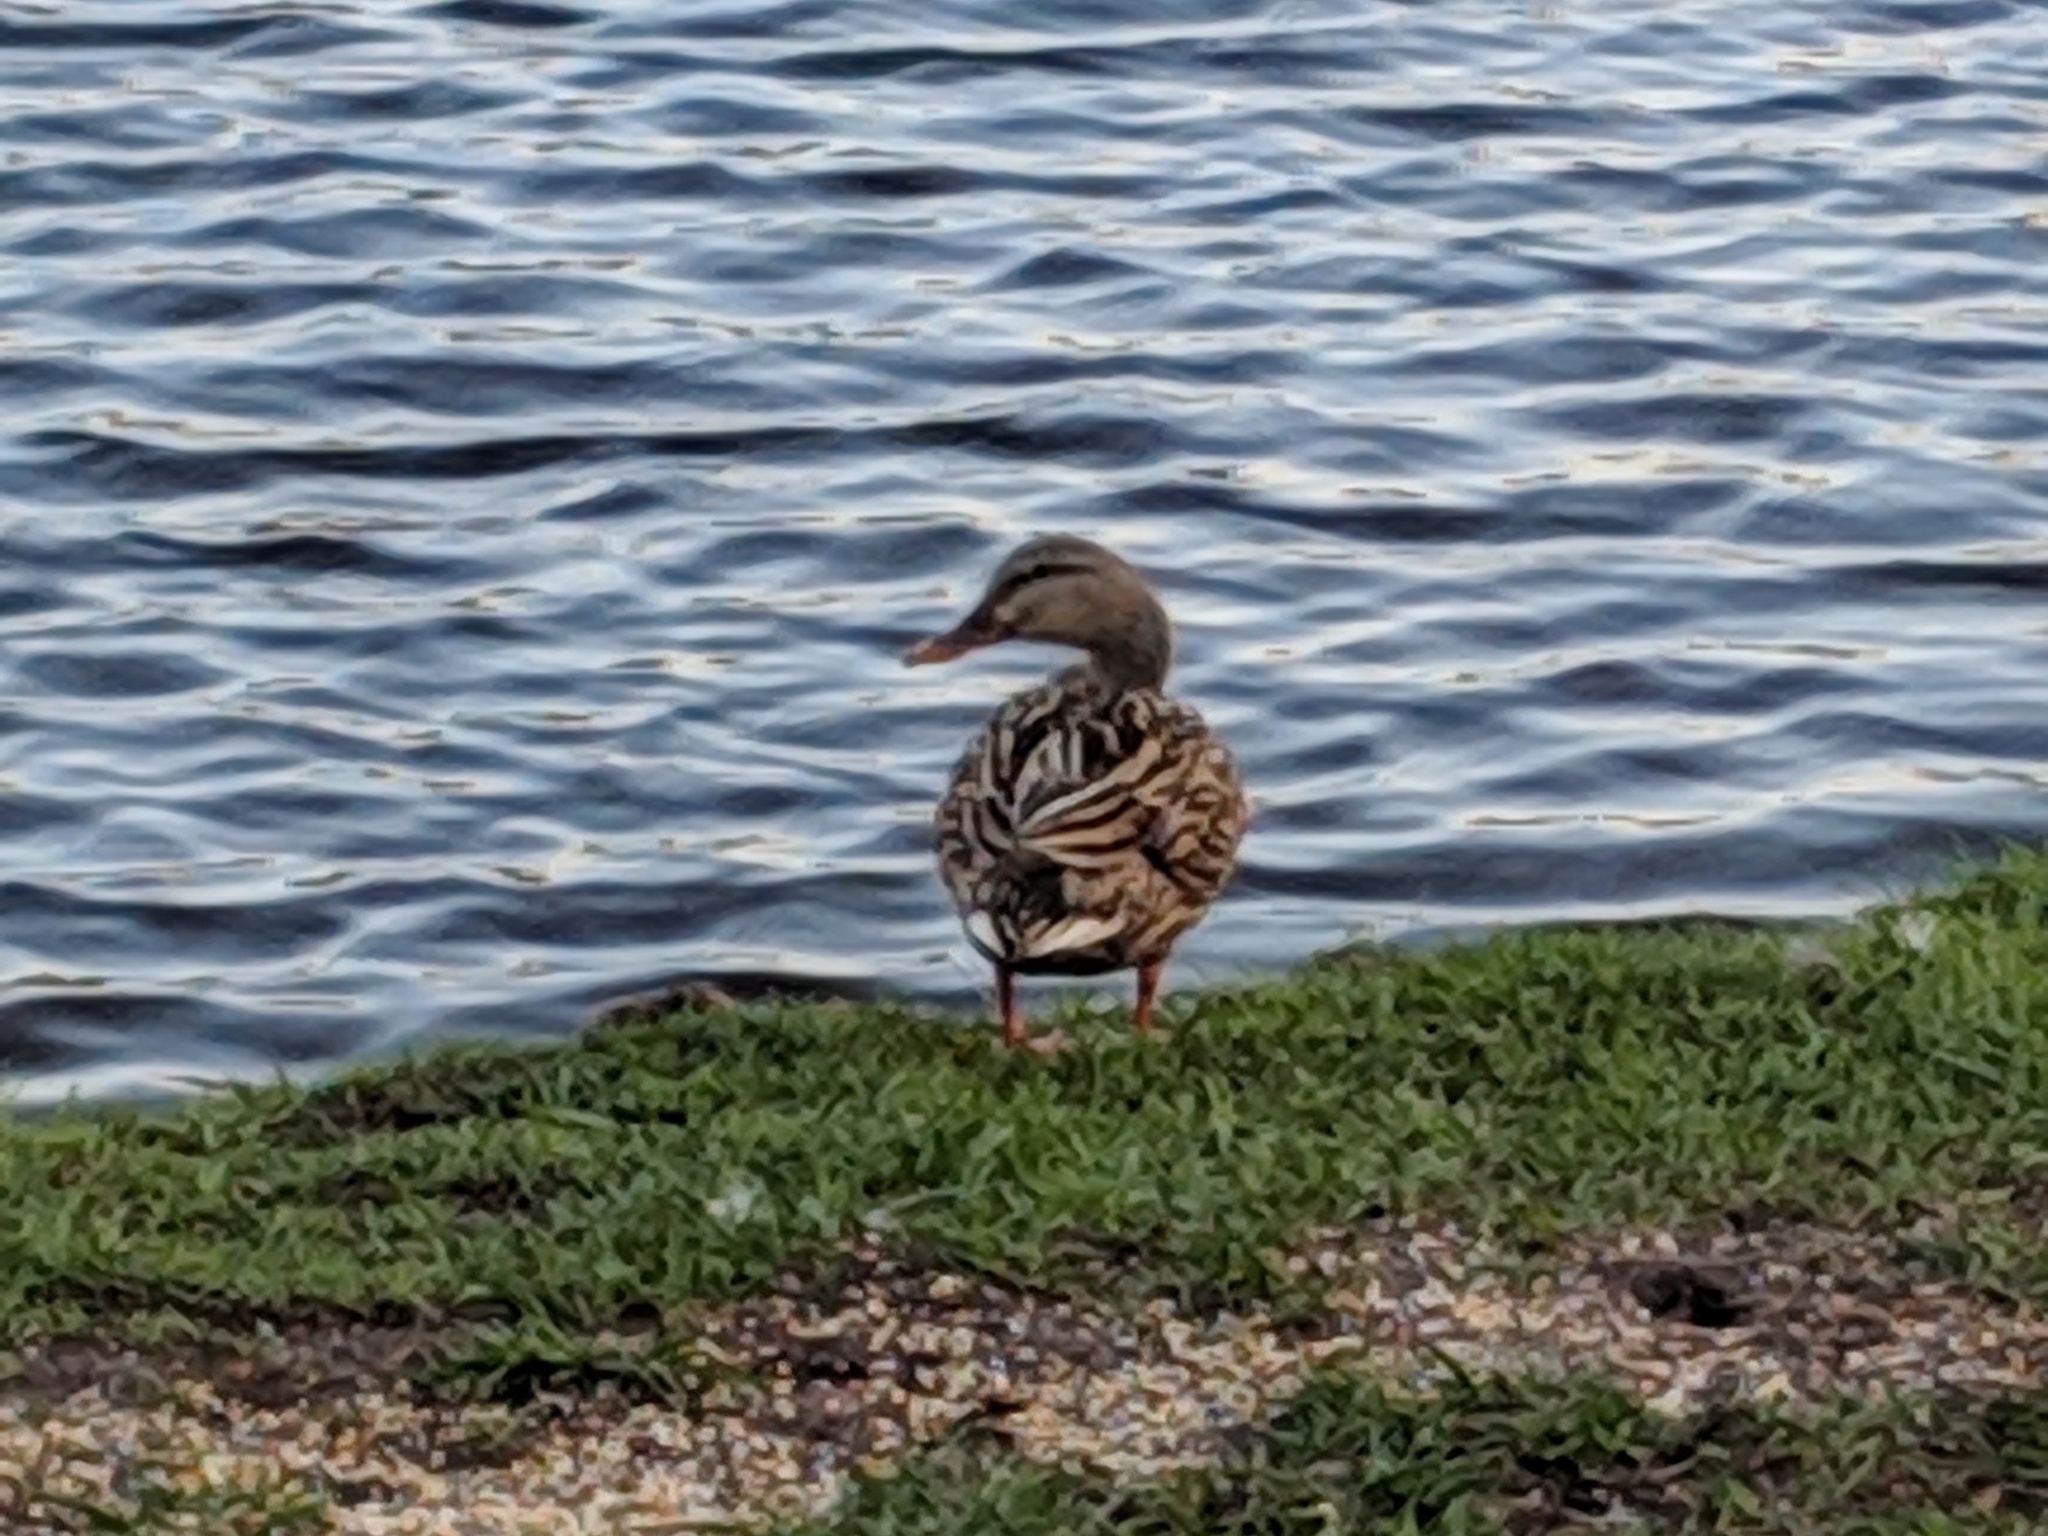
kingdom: Animalia
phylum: Chordata
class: Aves
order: Anseriformes
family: Anatidae
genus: Anas
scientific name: Anas
